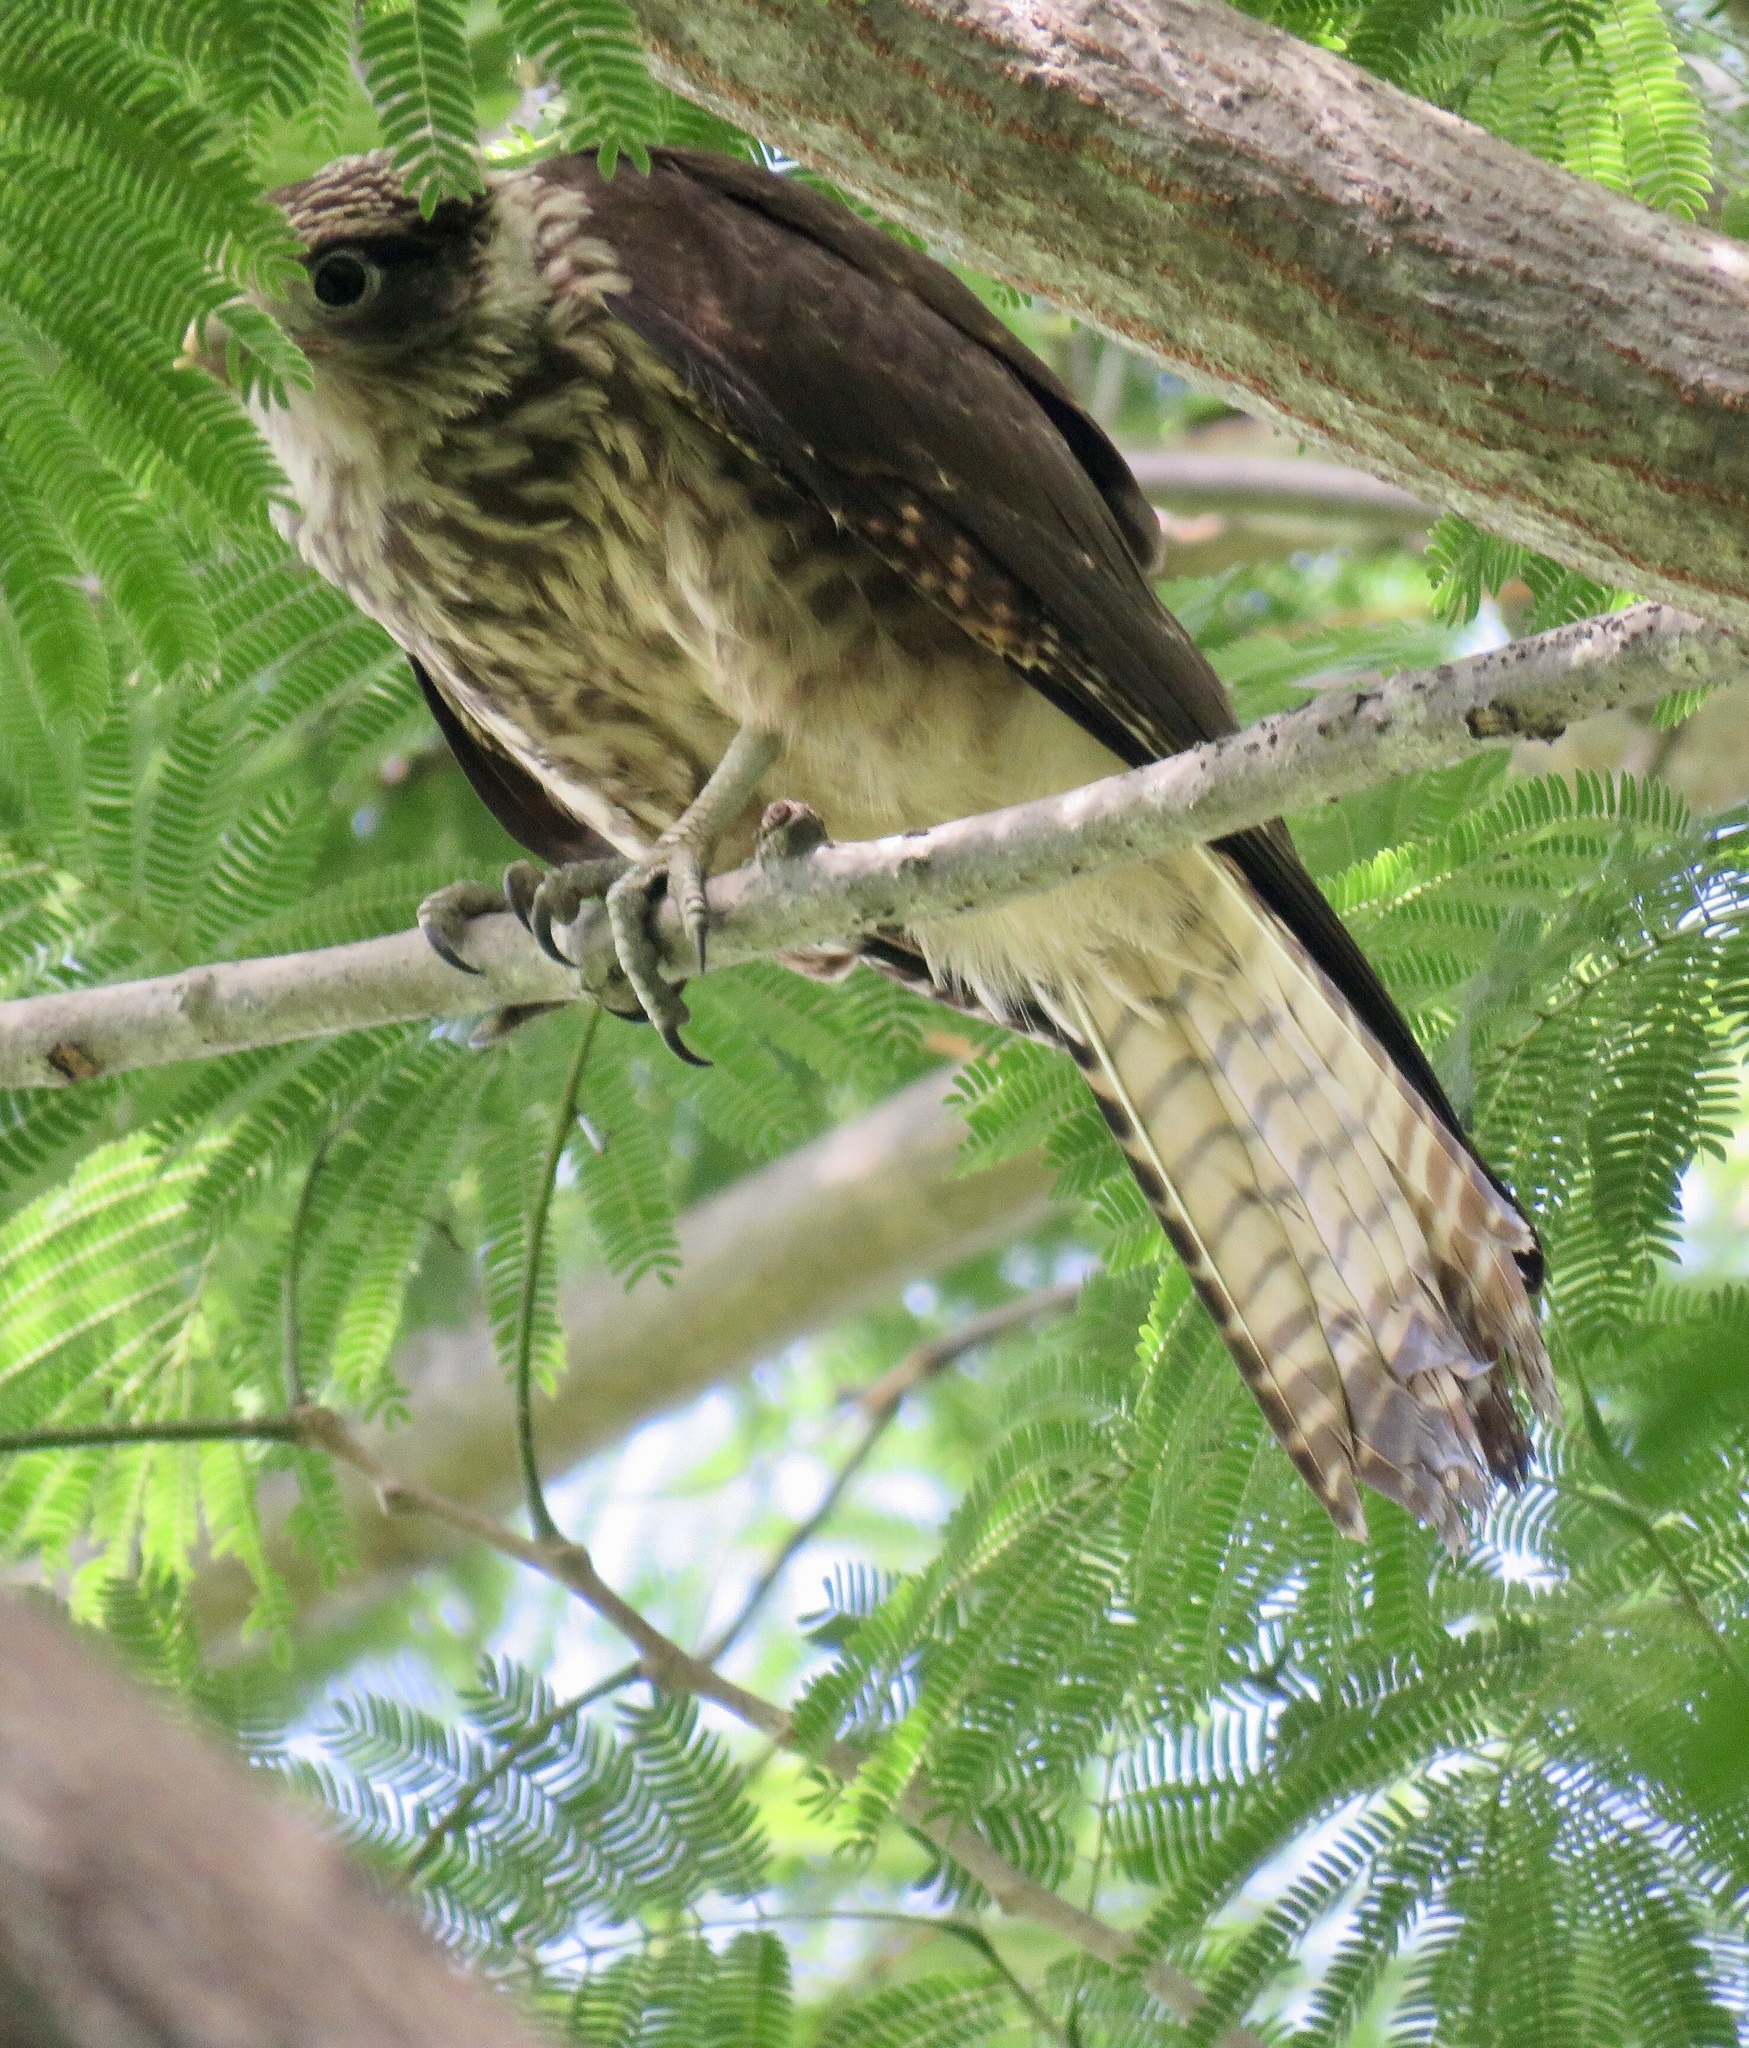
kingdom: Animalia
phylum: Chordata
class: Aves
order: Falconiformes
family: Falconidae
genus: Daptrius
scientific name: Daptrius
